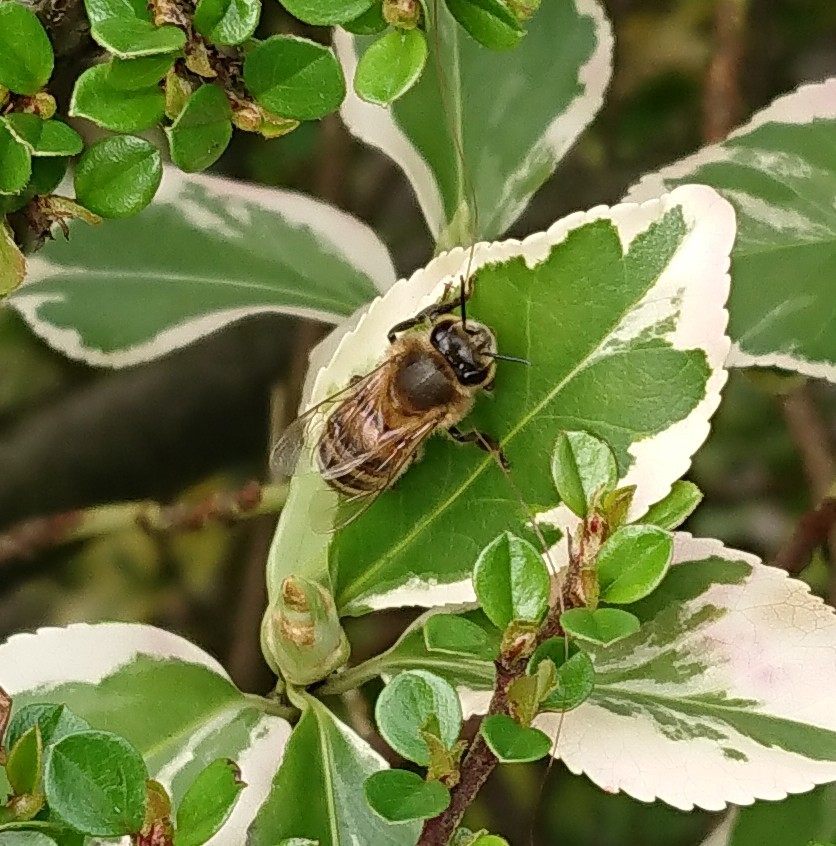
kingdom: Animalia
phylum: Arthropoda
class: Insecta
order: Hymenoptera
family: Apidae
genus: Apis
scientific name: Apis mellifera
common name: Honey bee
